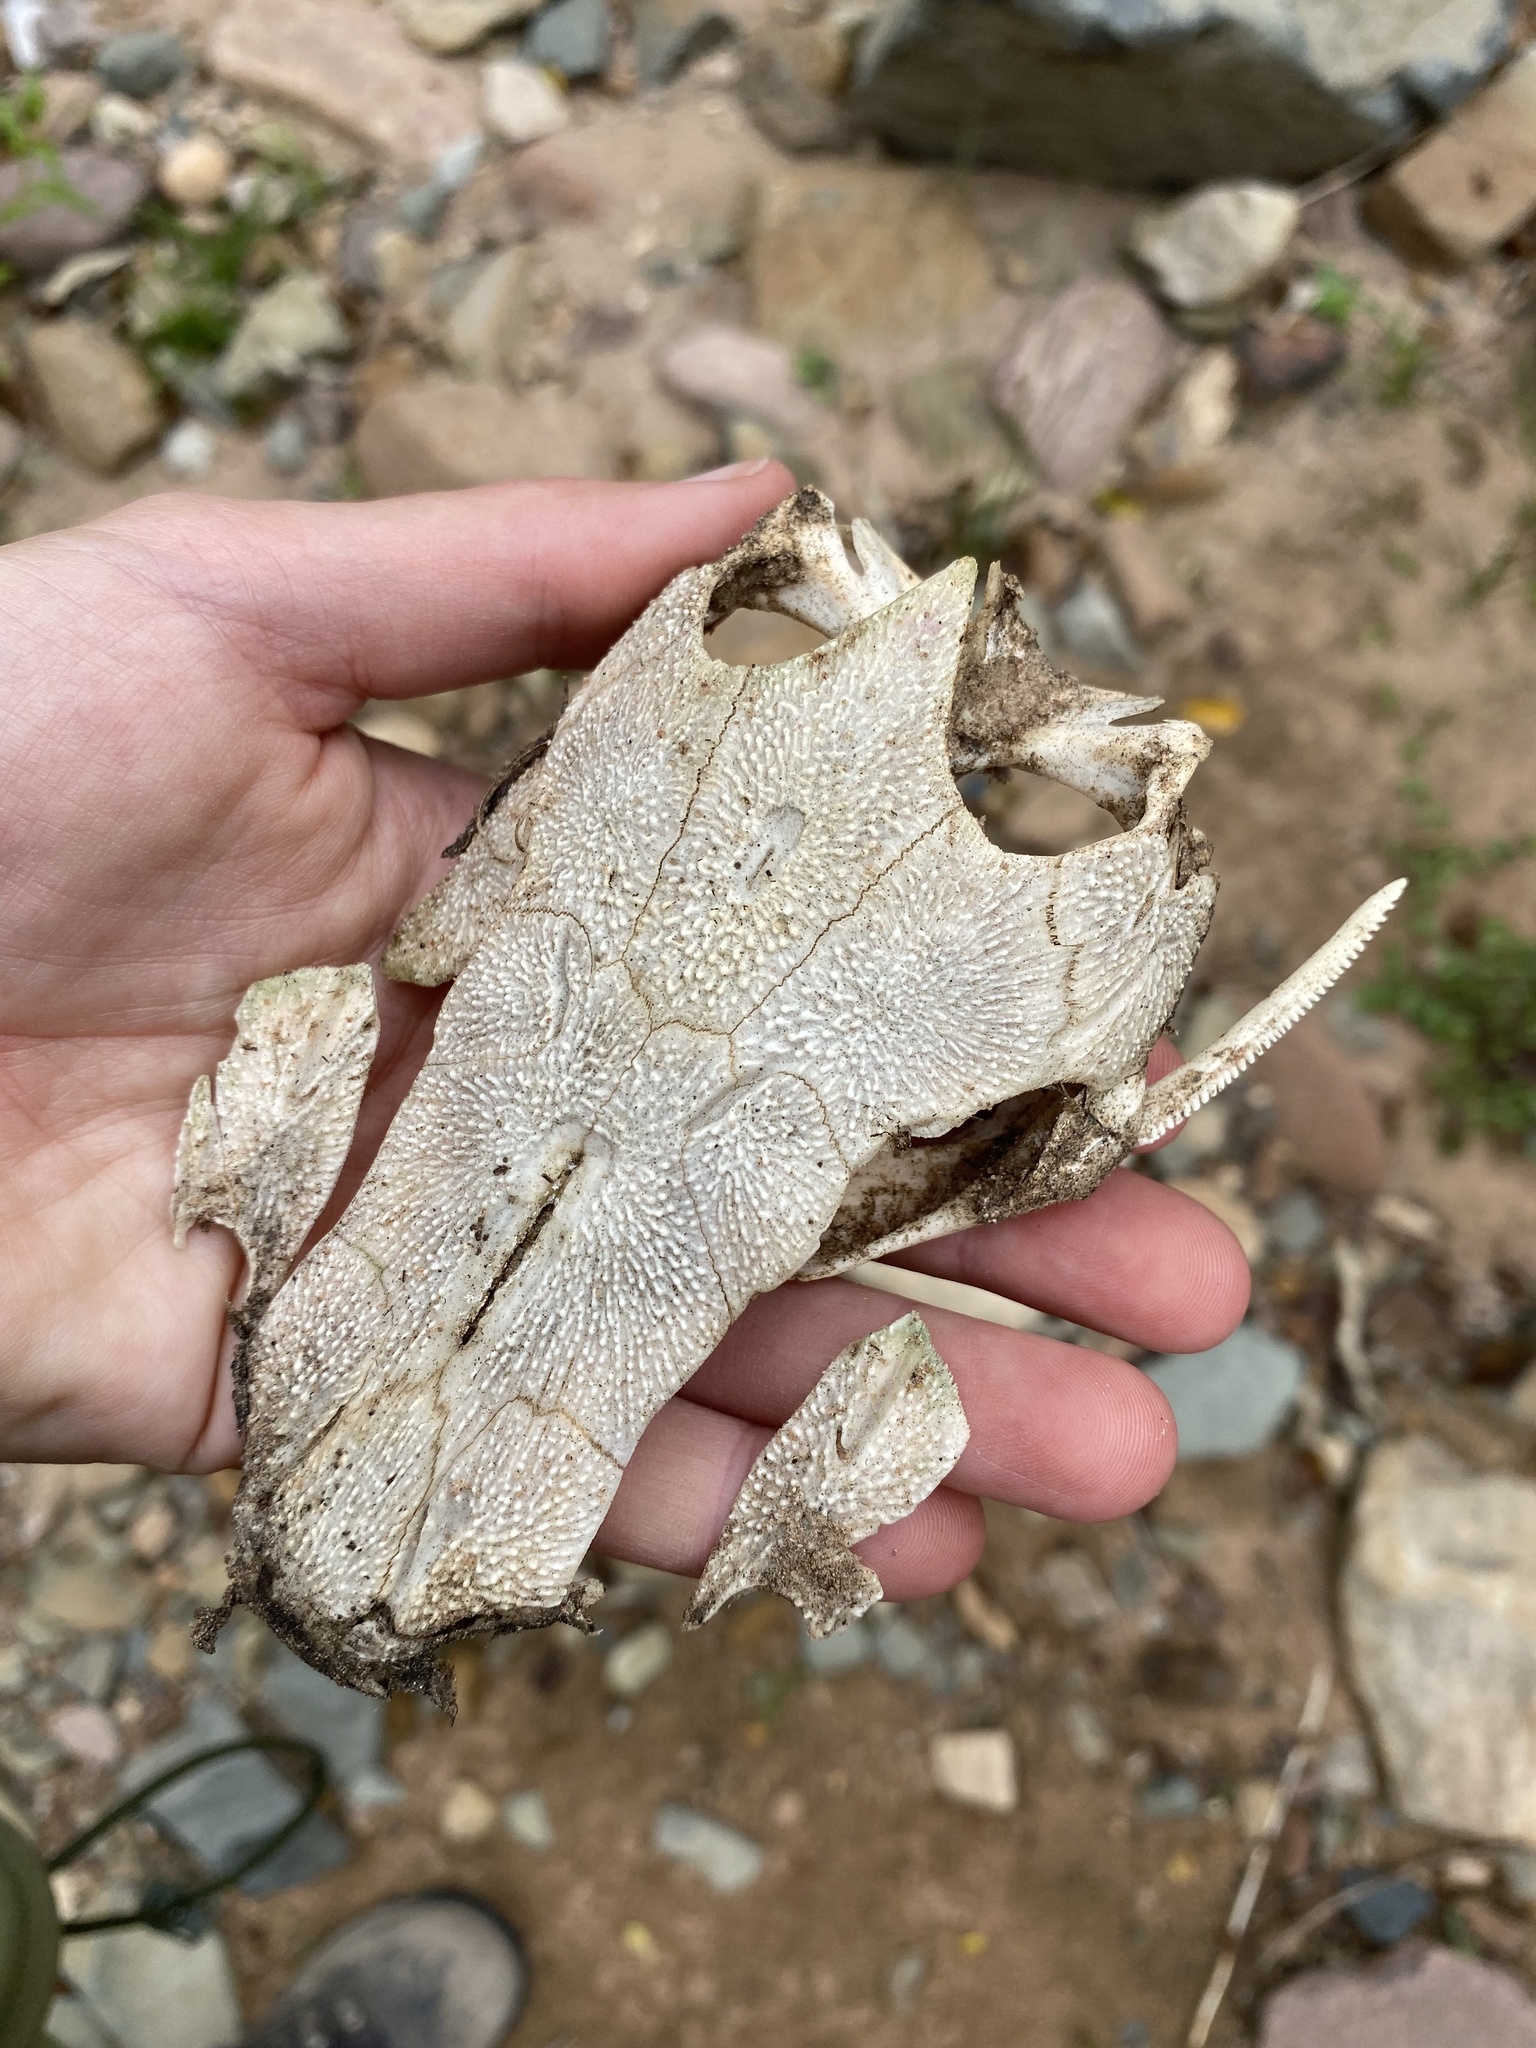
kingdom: Animalia
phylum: Chordata
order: Siluriformes
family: Clariidae
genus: Clarias
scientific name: Clarias gariepinus
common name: African catfish
